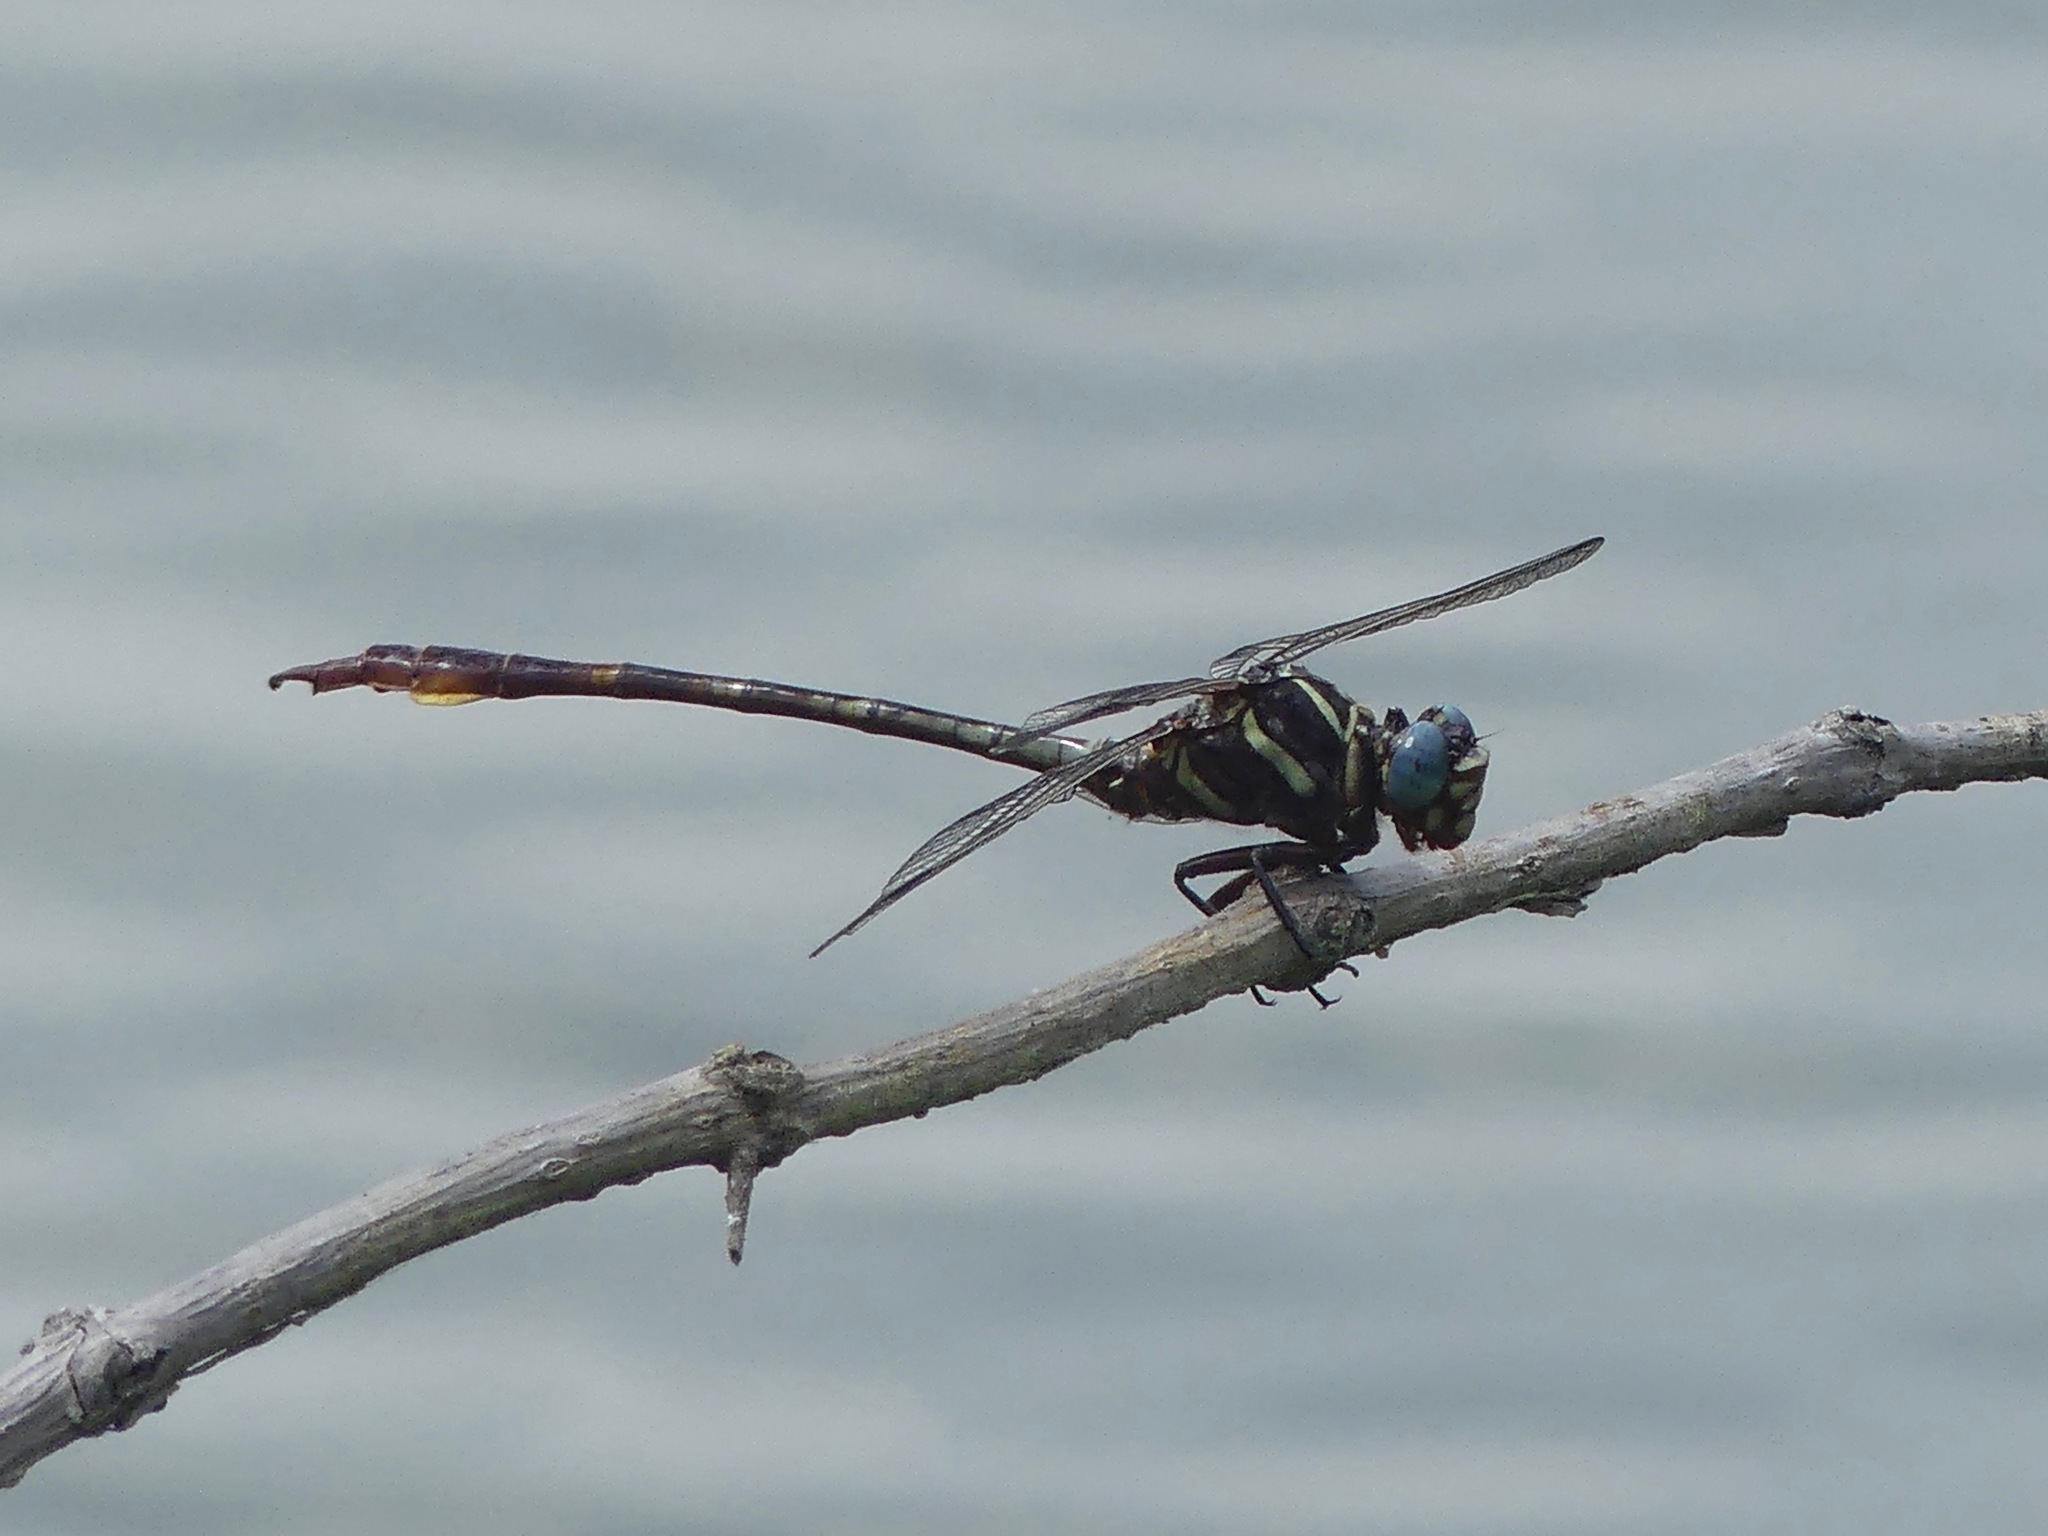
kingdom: Animalia
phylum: Arthropoda
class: Insecta
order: Odonata
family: Gomphidae
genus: Aphylla
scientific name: Aphylla williamsoni
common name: Two-striped forceptail
